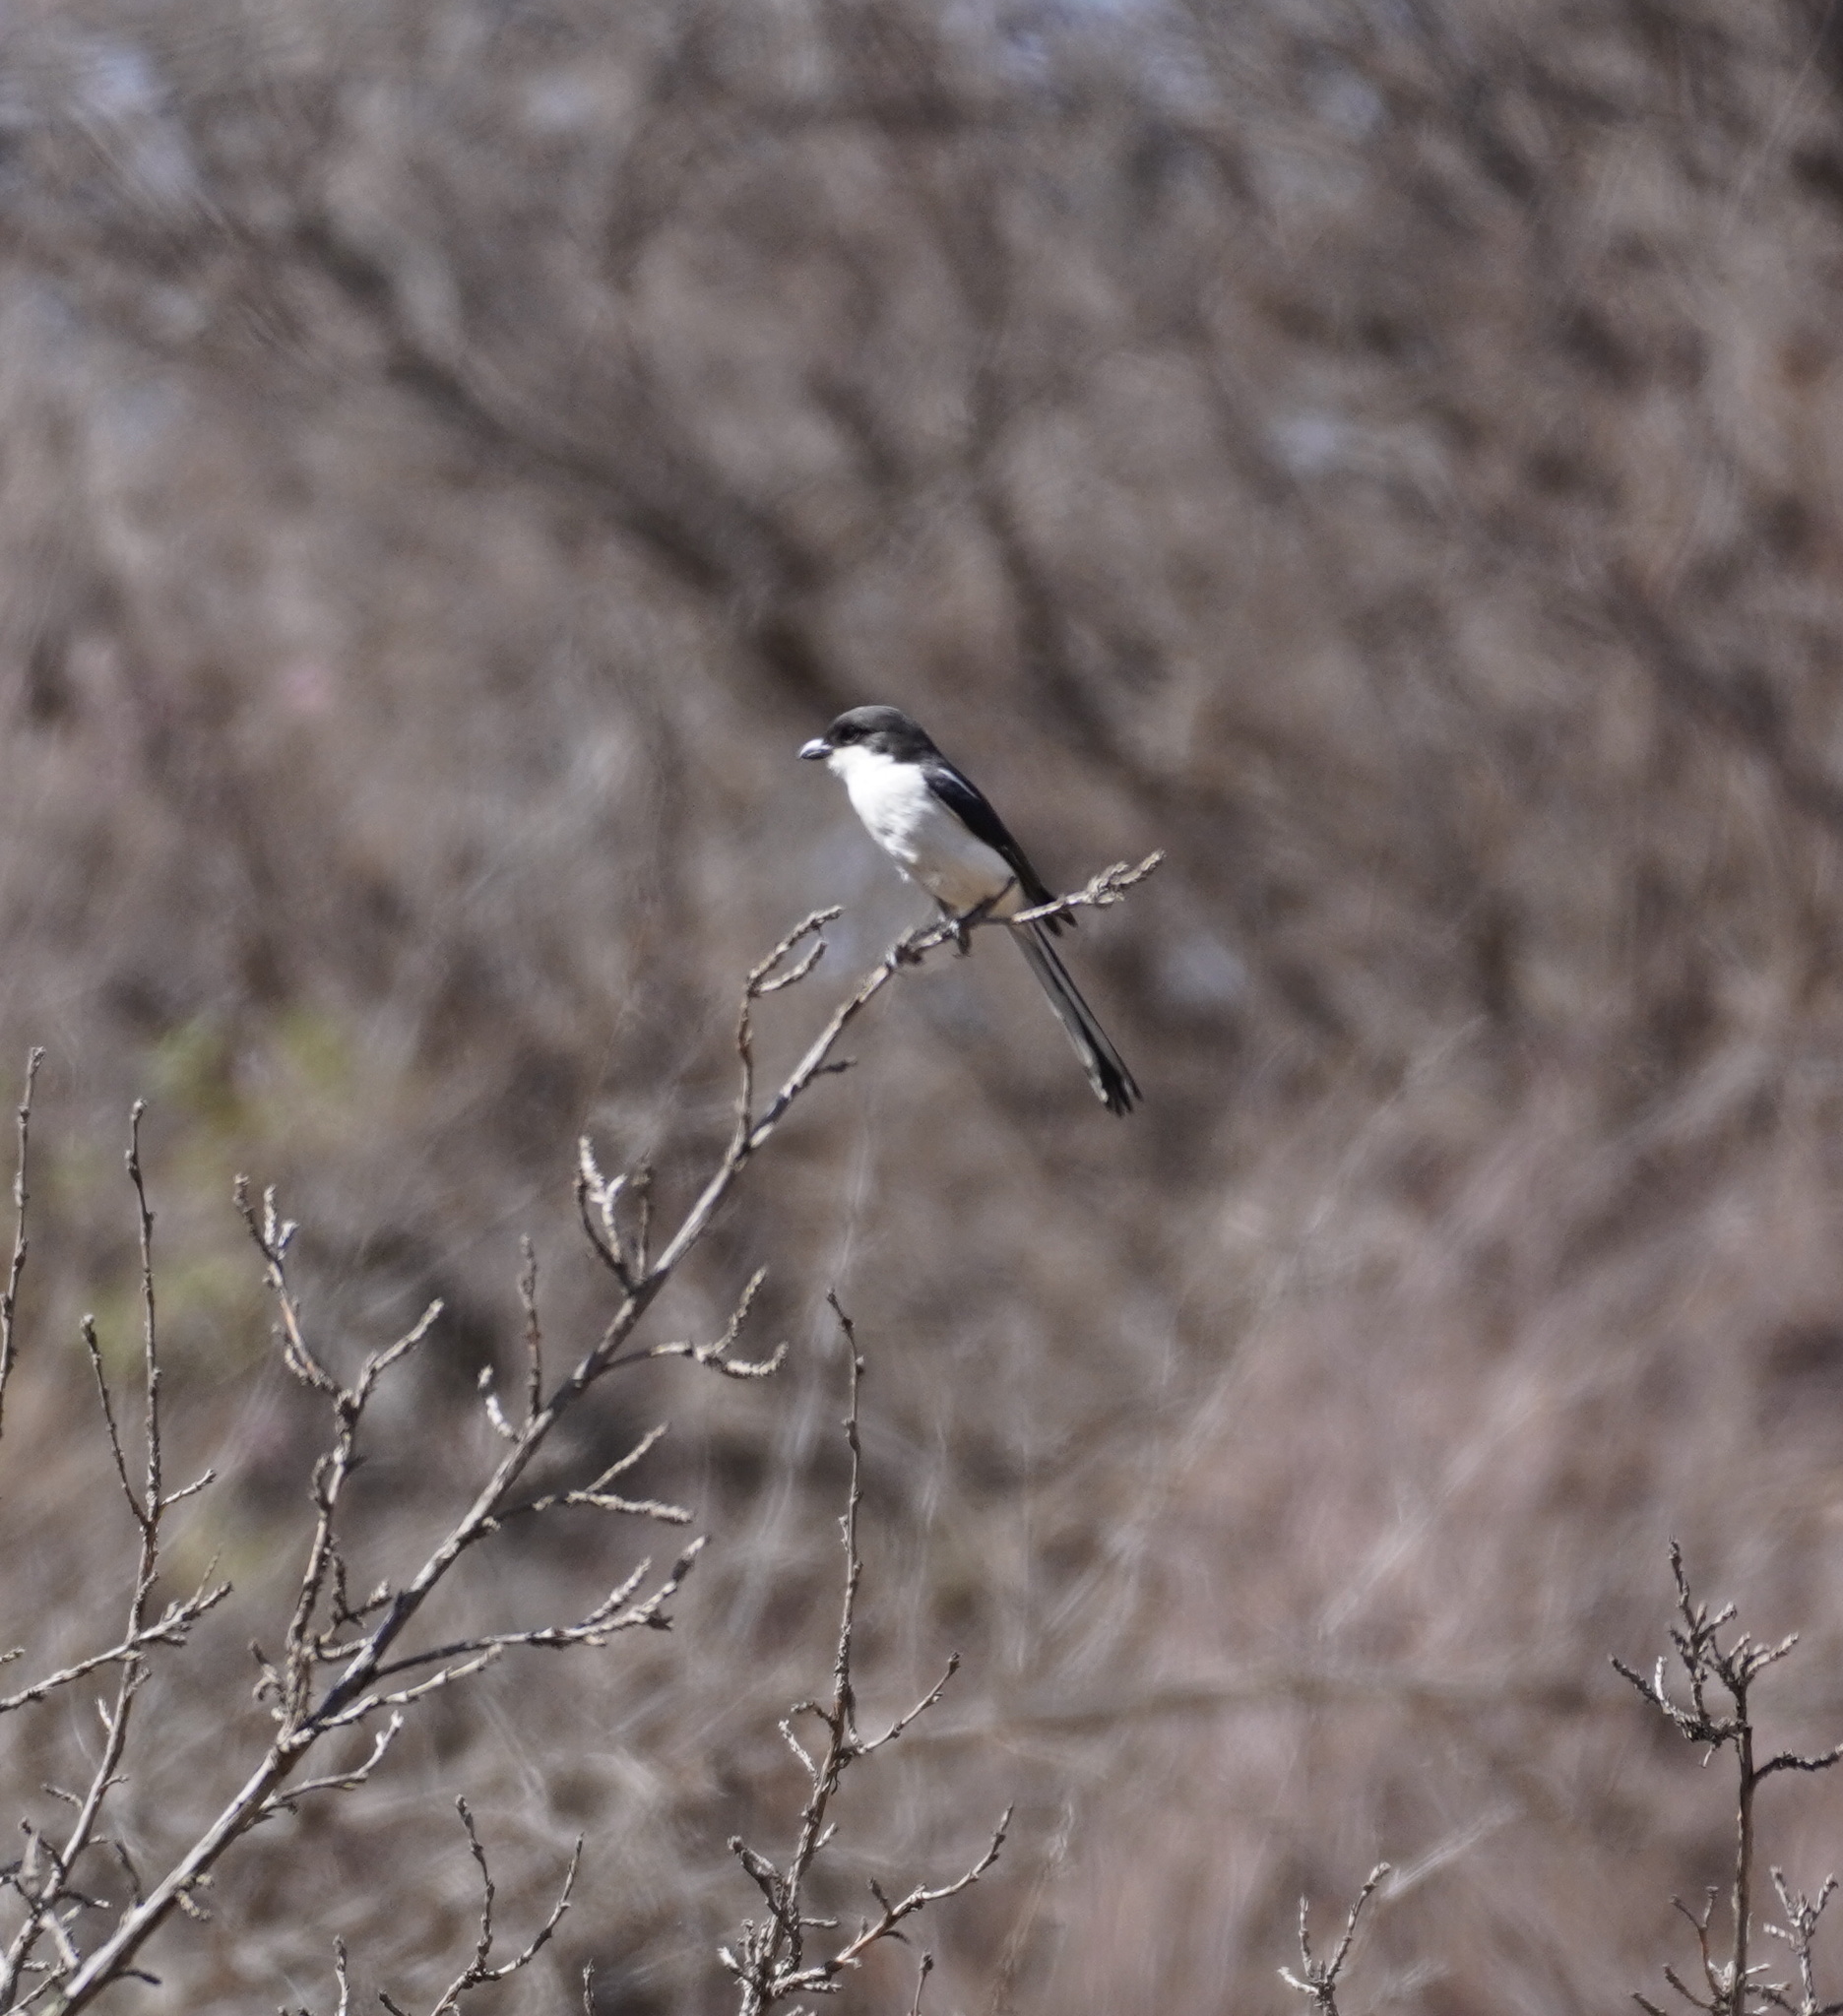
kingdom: Animalia
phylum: Chordata
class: Aves
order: Passeriformes
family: Laniidae
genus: Lanius
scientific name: Lanius collaris
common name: Southern fiscal
